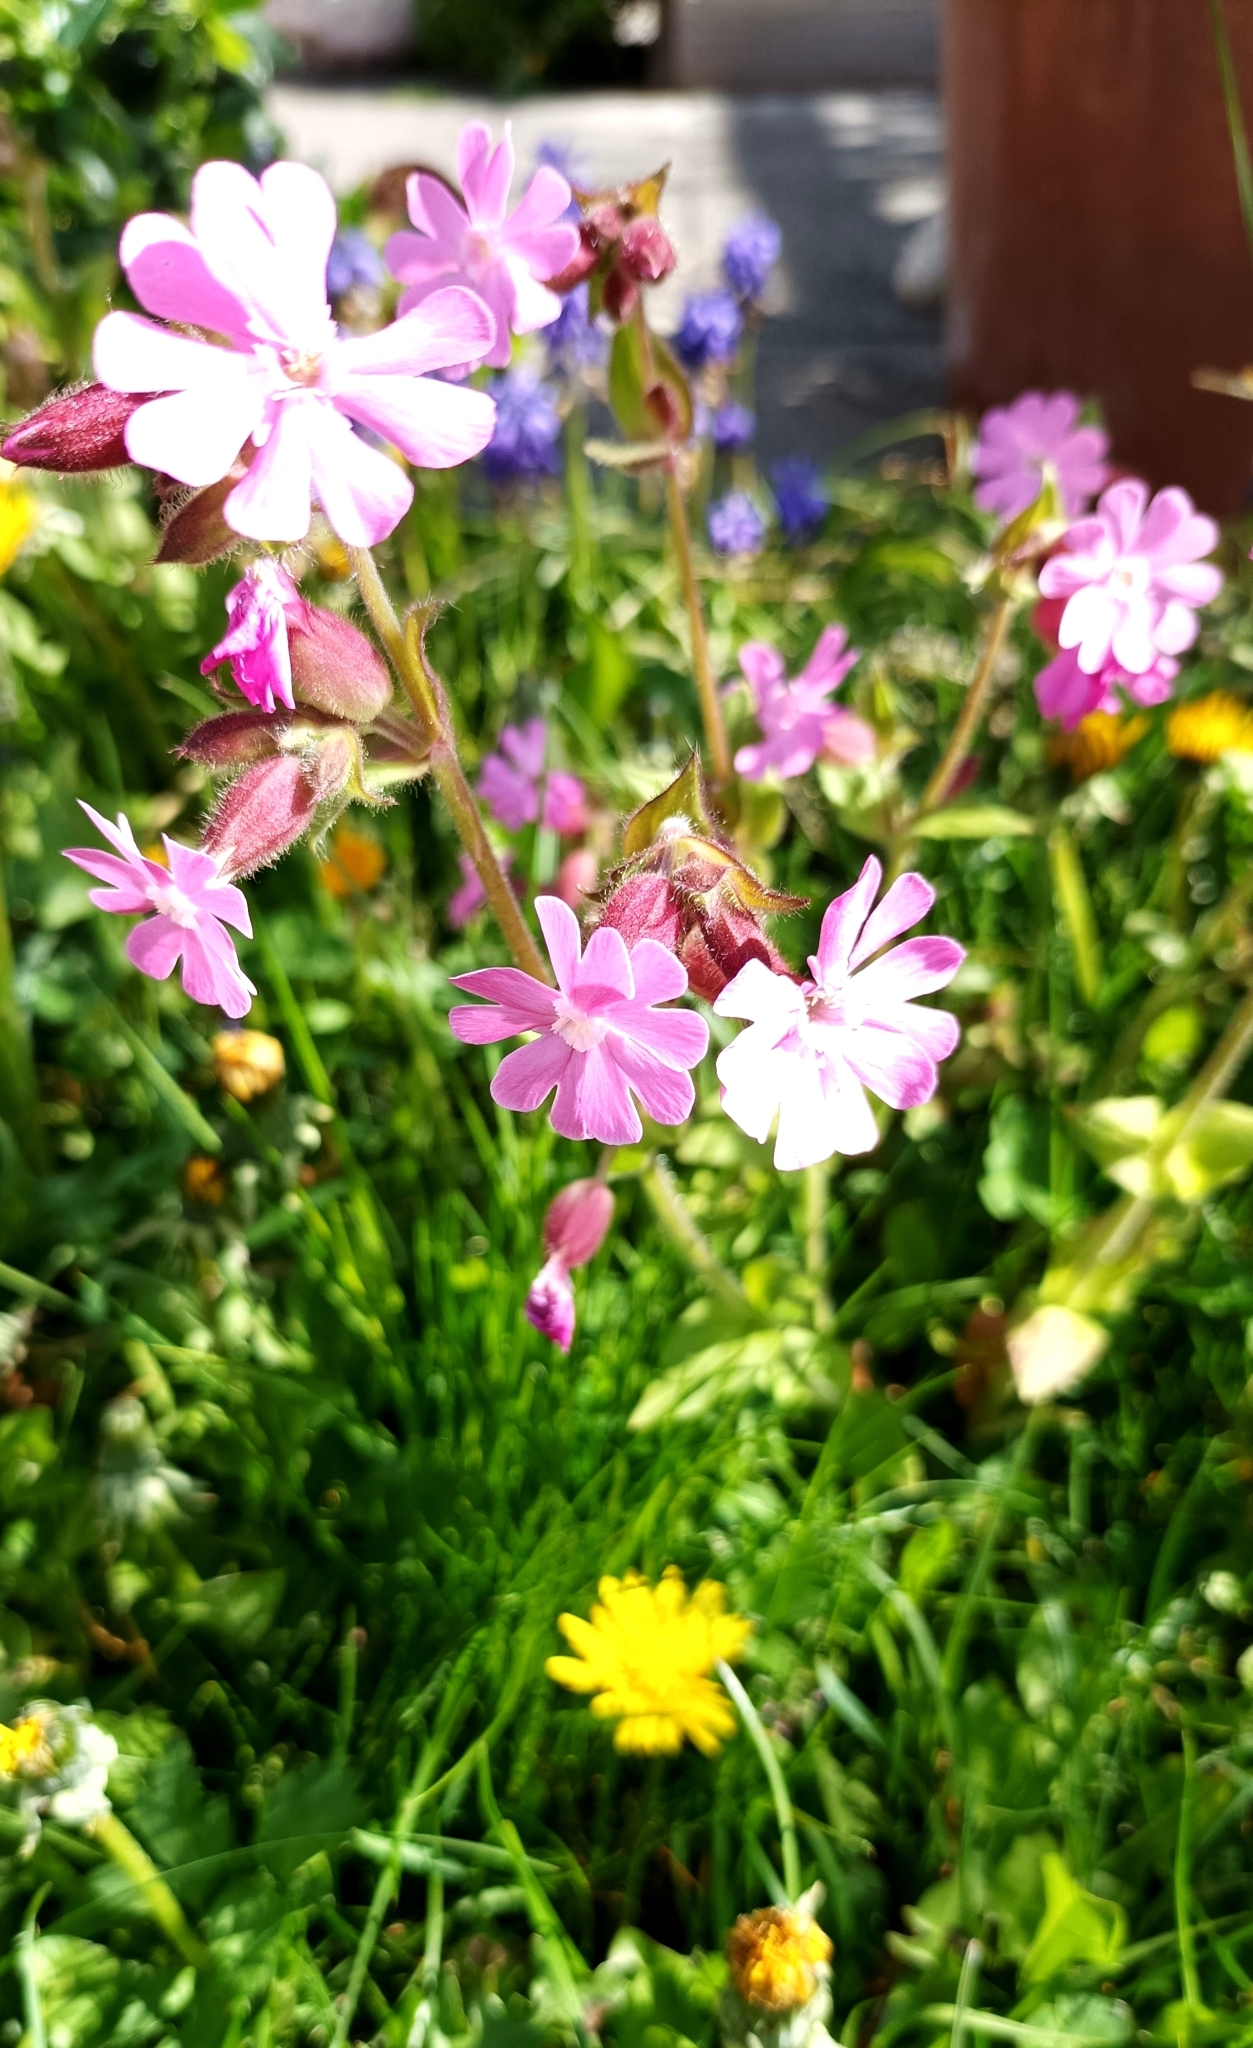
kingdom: Plantae
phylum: Tracheophyta
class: Magnoliopsida
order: Caryophyllales
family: Caryophyllaceae
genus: Silene
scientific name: Silene dioica
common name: Red campion
